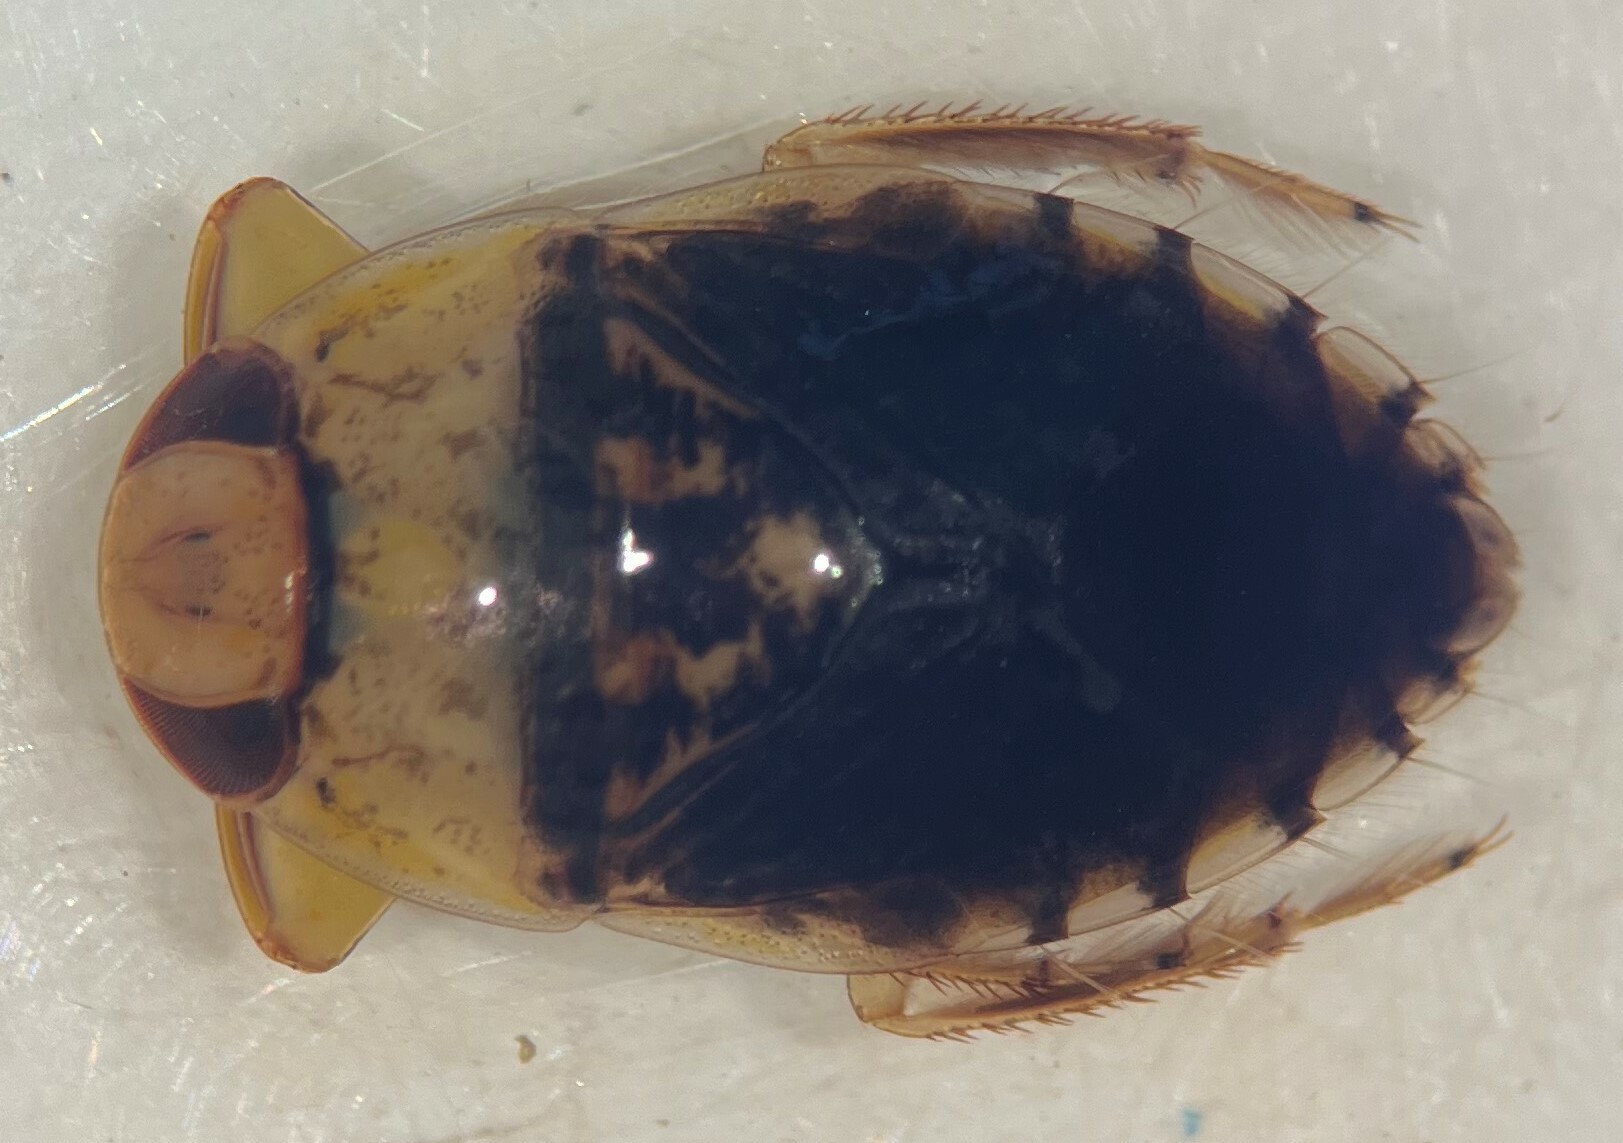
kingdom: Animalia
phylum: Arthropoda
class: Insecta
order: Hemiptera
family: Naucoridae
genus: Pelocoris
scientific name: Pelocoris biimpressus
